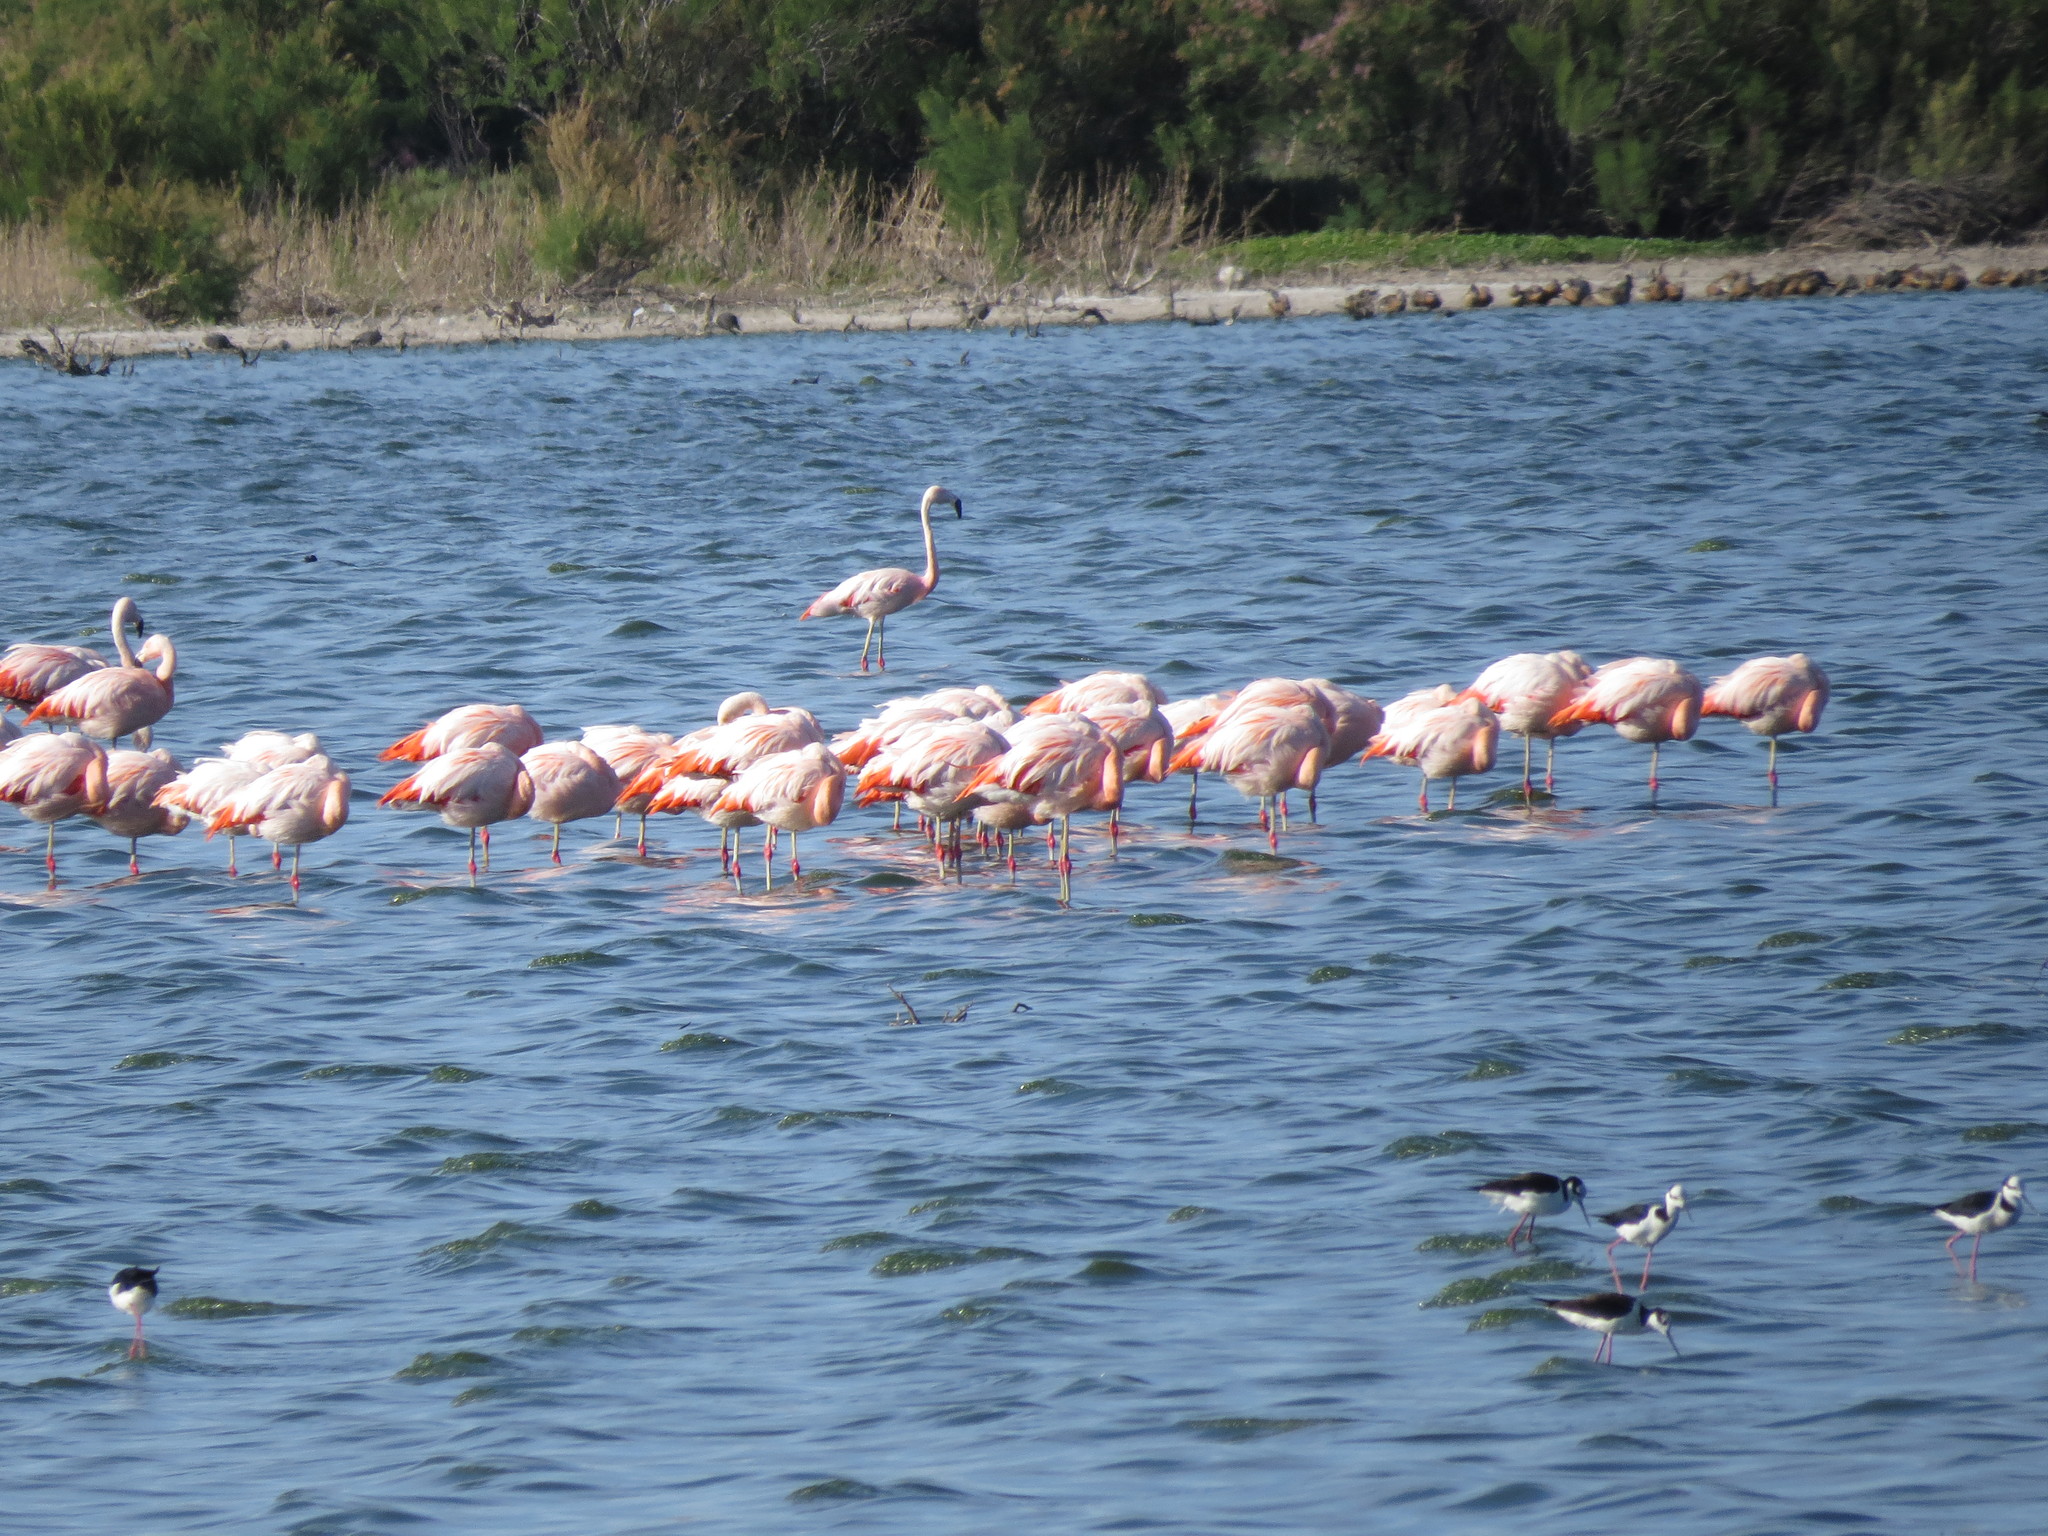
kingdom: Animalia
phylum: Chordata
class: Aves
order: Charadriiformes
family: Recurvirostridae
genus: Himantopus
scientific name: Himantopus mexicanus
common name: Black-necked stilt
